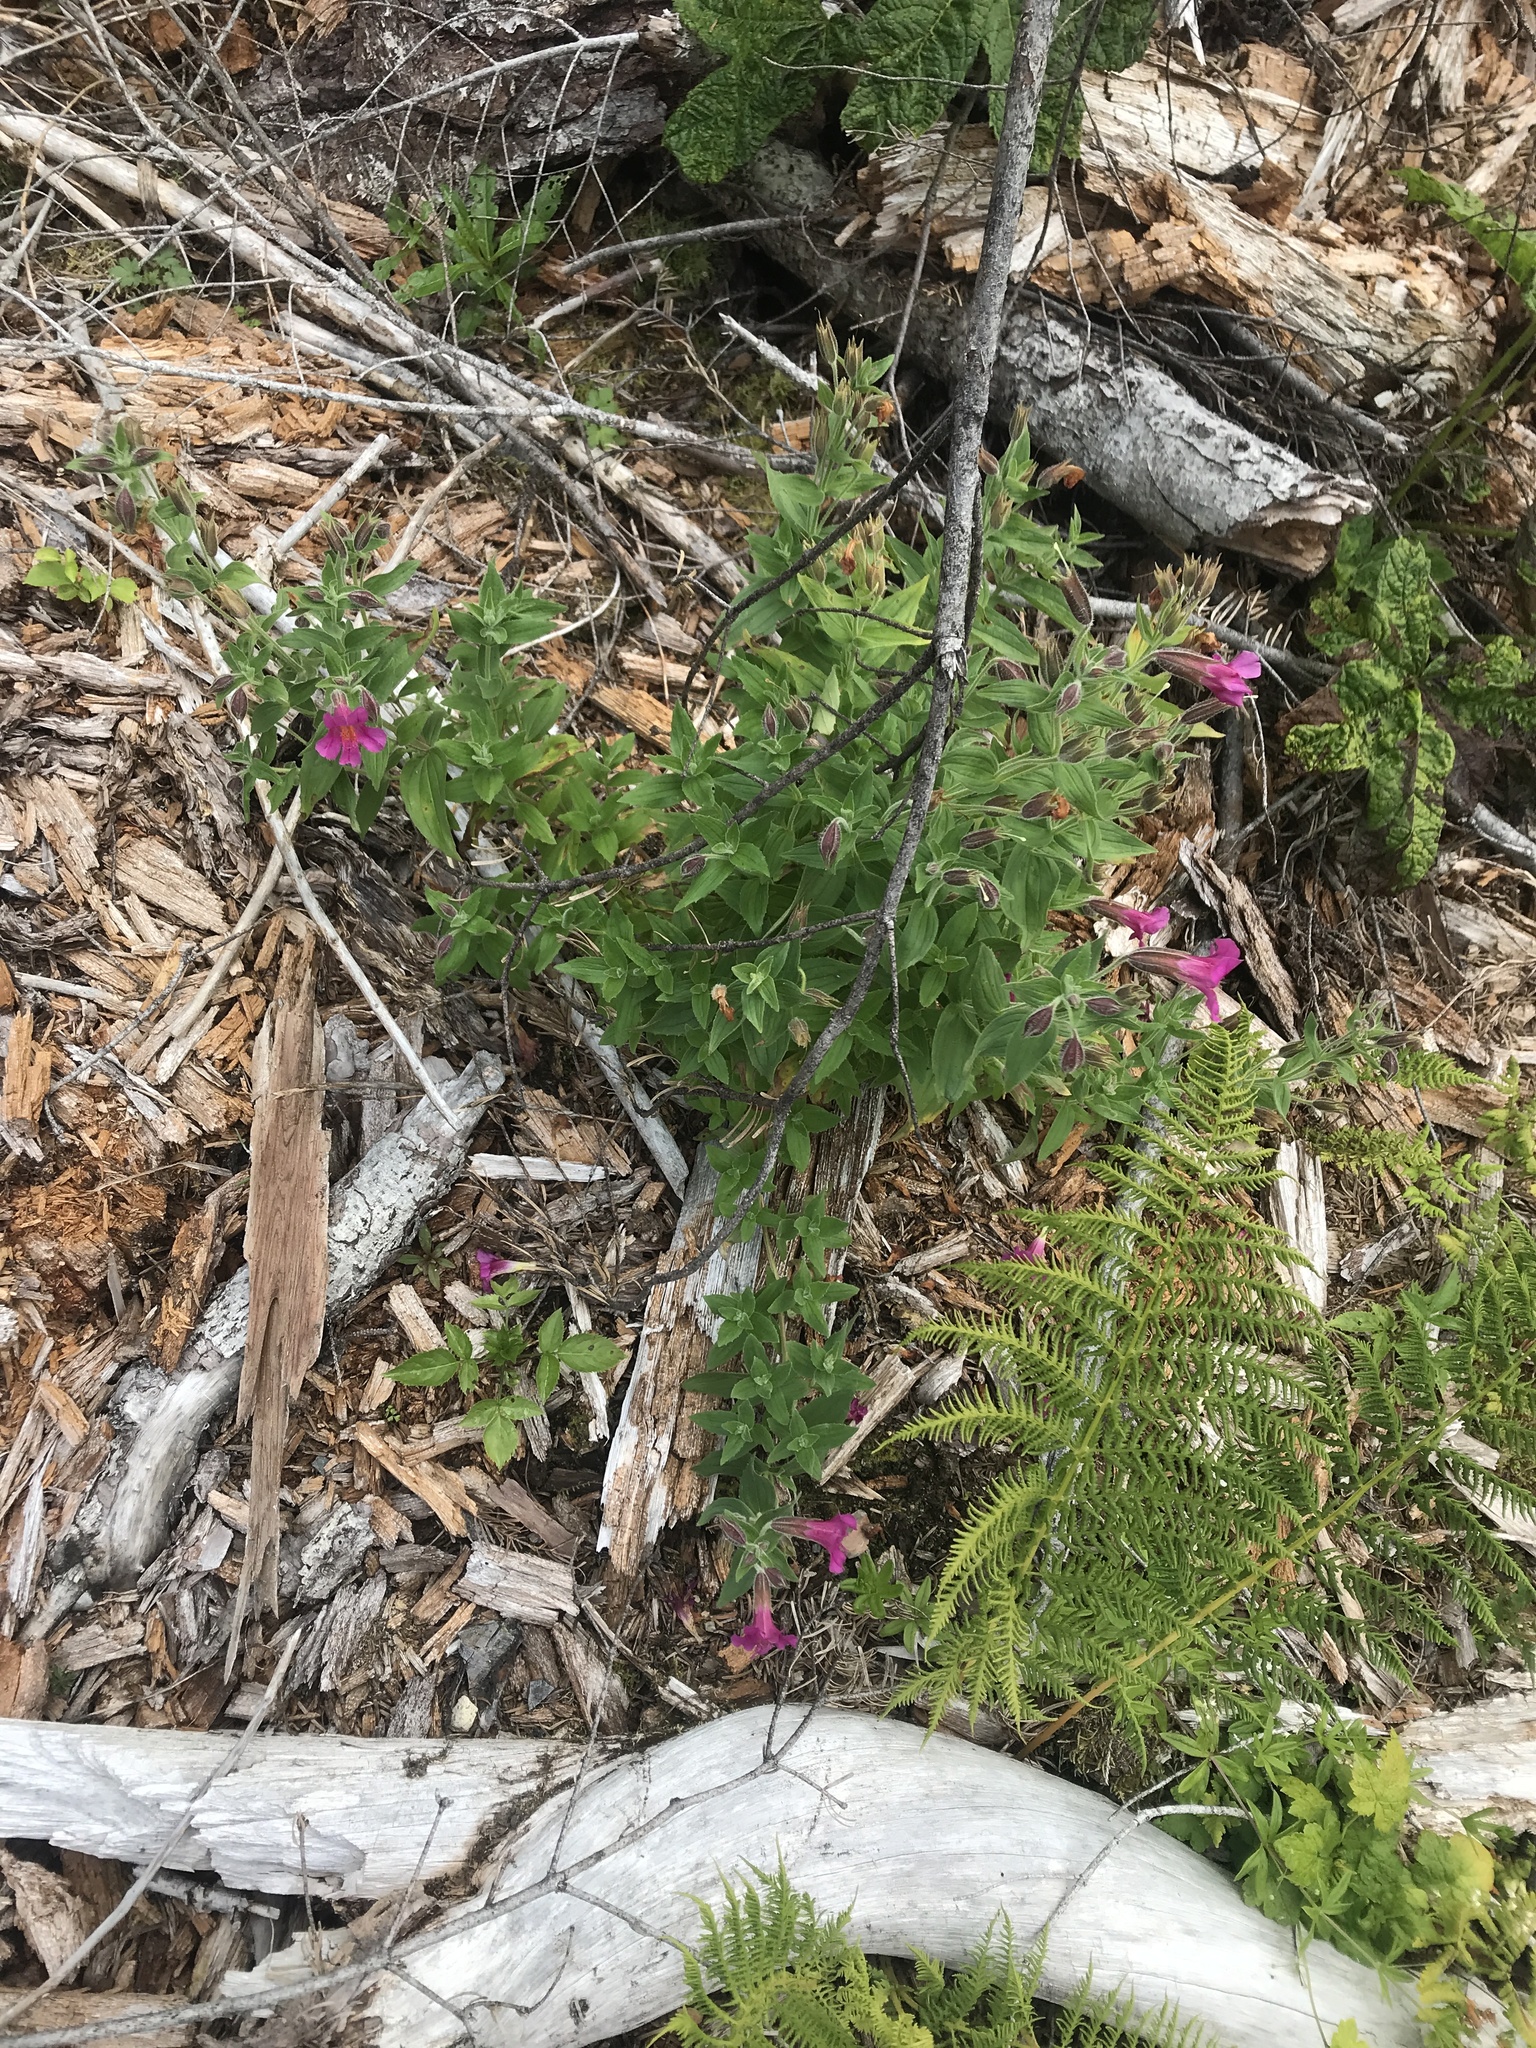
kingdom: Plantae
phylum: Tracheophyta
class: Magnoliopsida
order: Lamiales
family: Phrymaceae
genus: Erythranthe
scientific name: Erythranthe lewisii
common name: Lewis's monkey-flower
